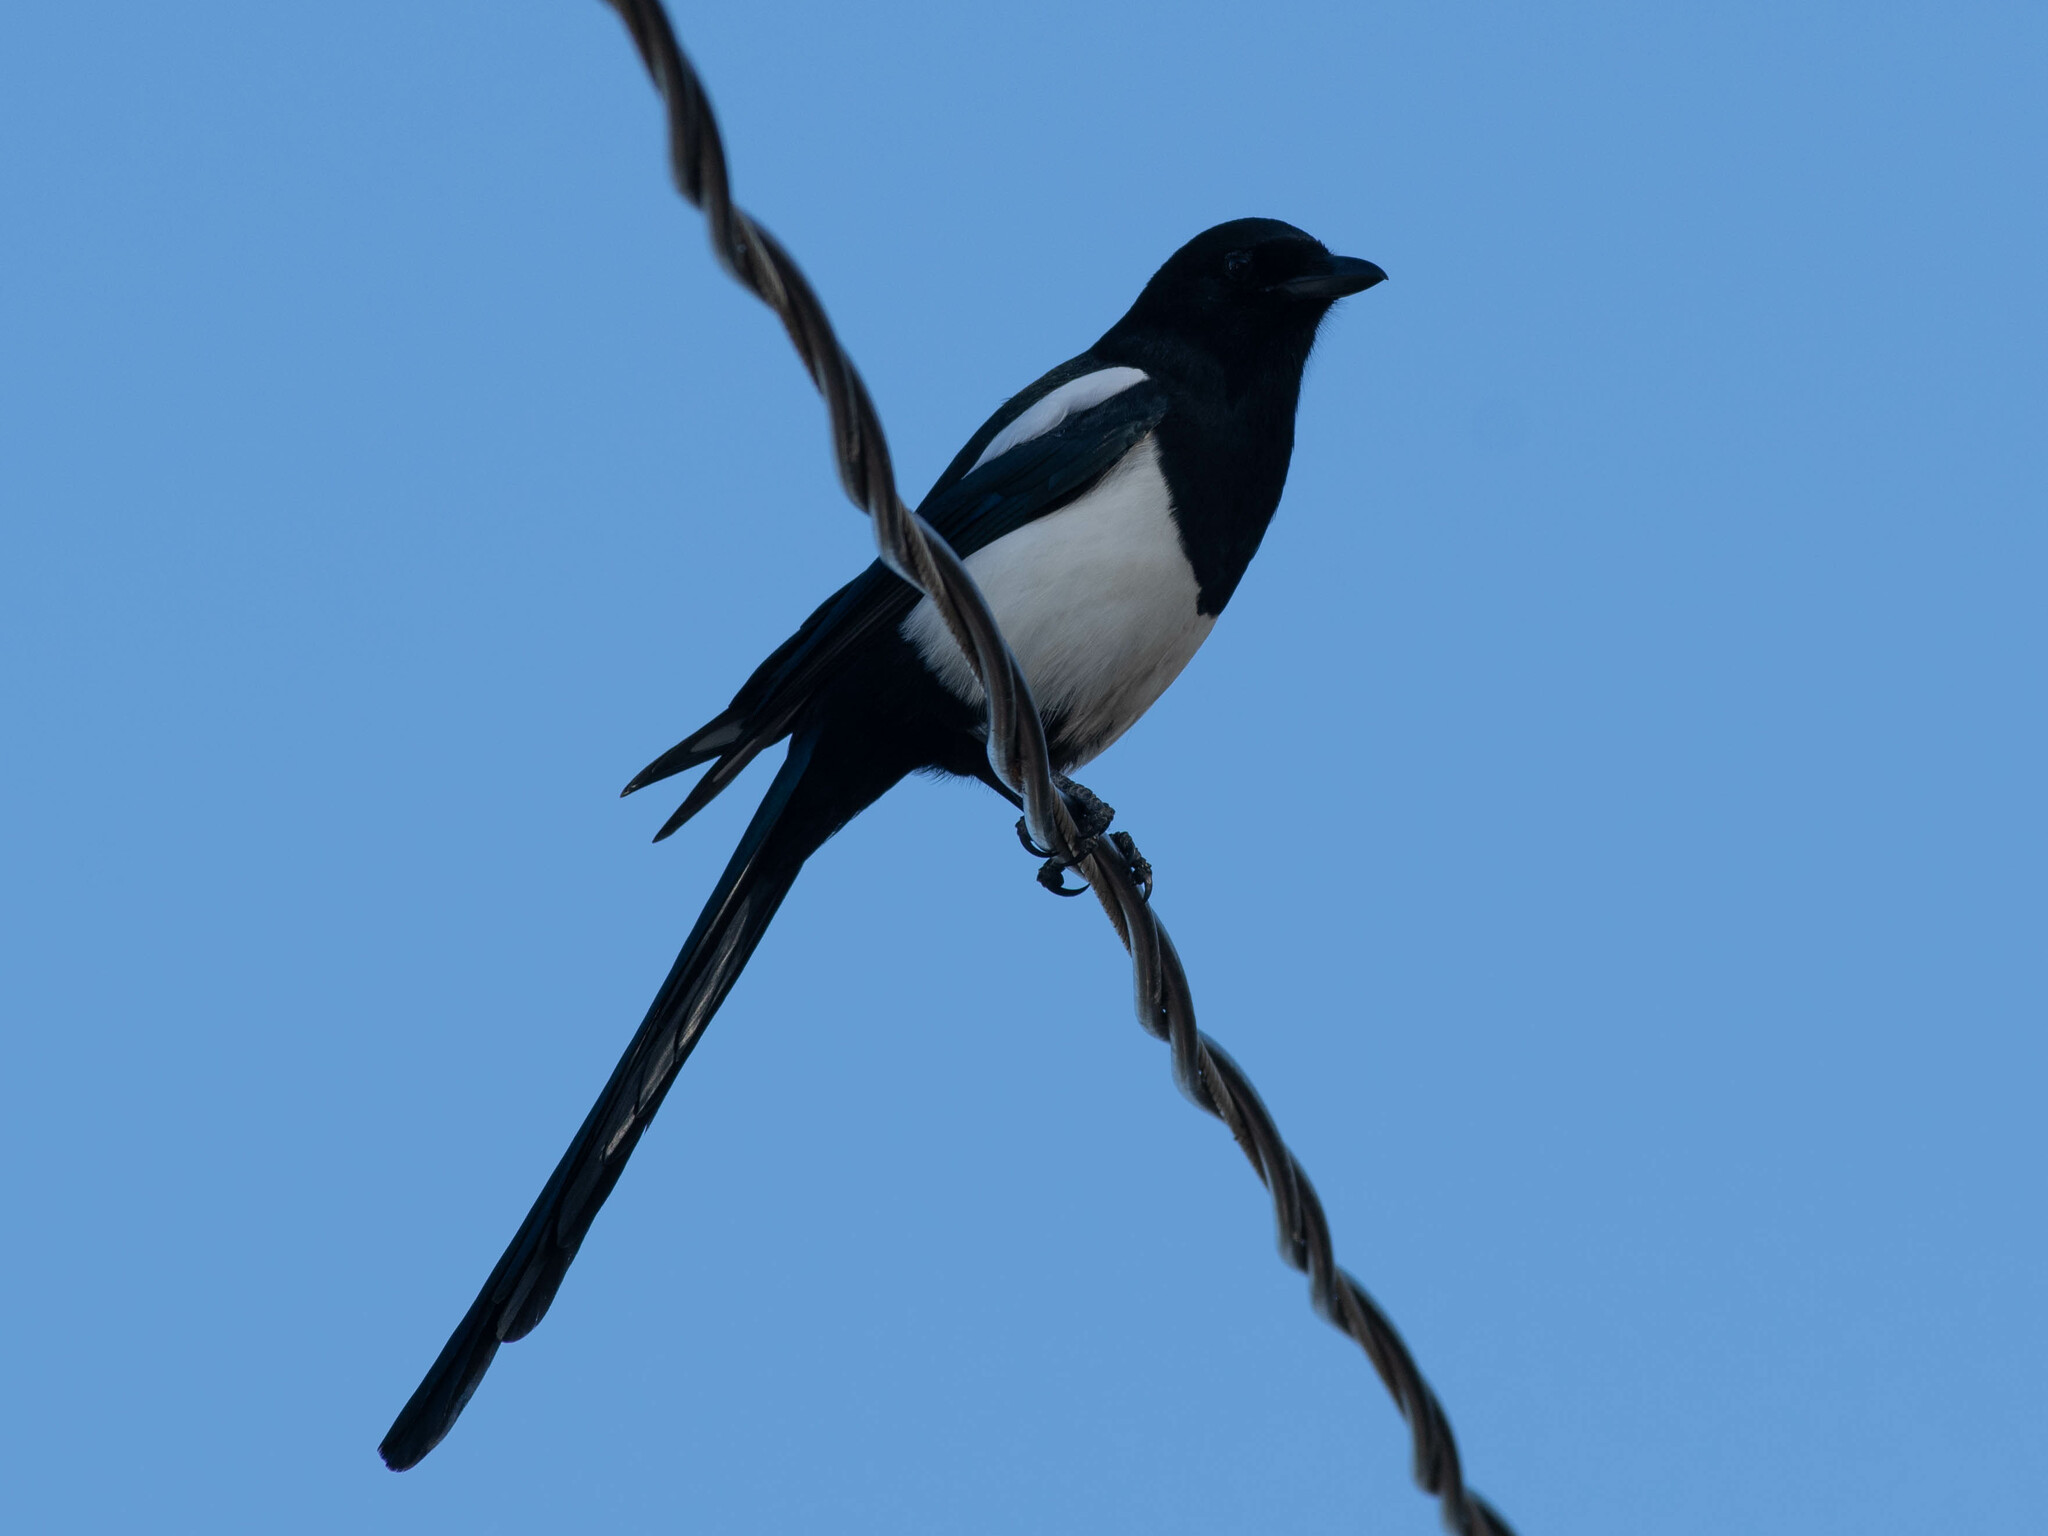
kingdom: Animalia
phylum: Chordata
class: Aves
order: Passeriformes
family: Corvidae
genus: Pica
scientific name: Pica hudsonia
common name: Black-billed magpie
